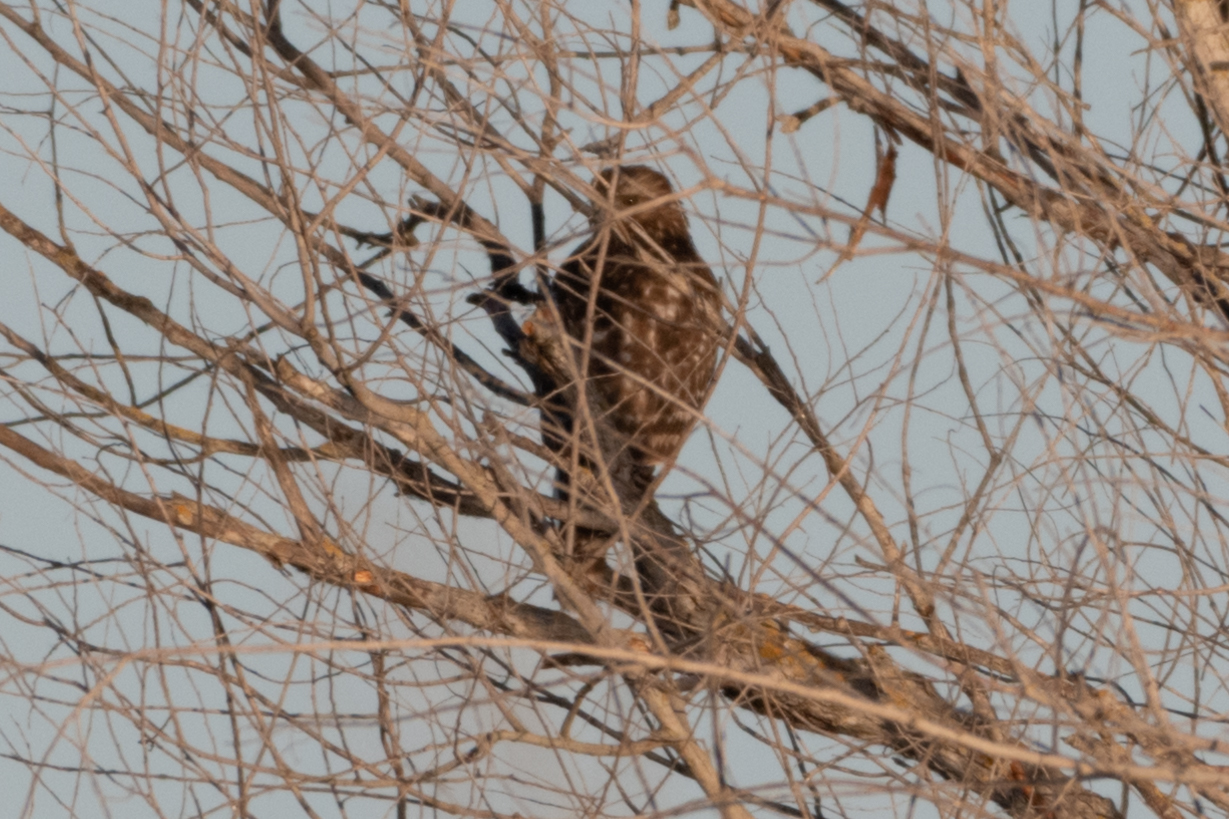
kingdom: Animalia
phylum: Chordata
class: Aves
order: Accipitriformes
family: Accipitridae
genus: Buteo
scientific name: Buteo lineatus
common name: Red-shouldered hawk
